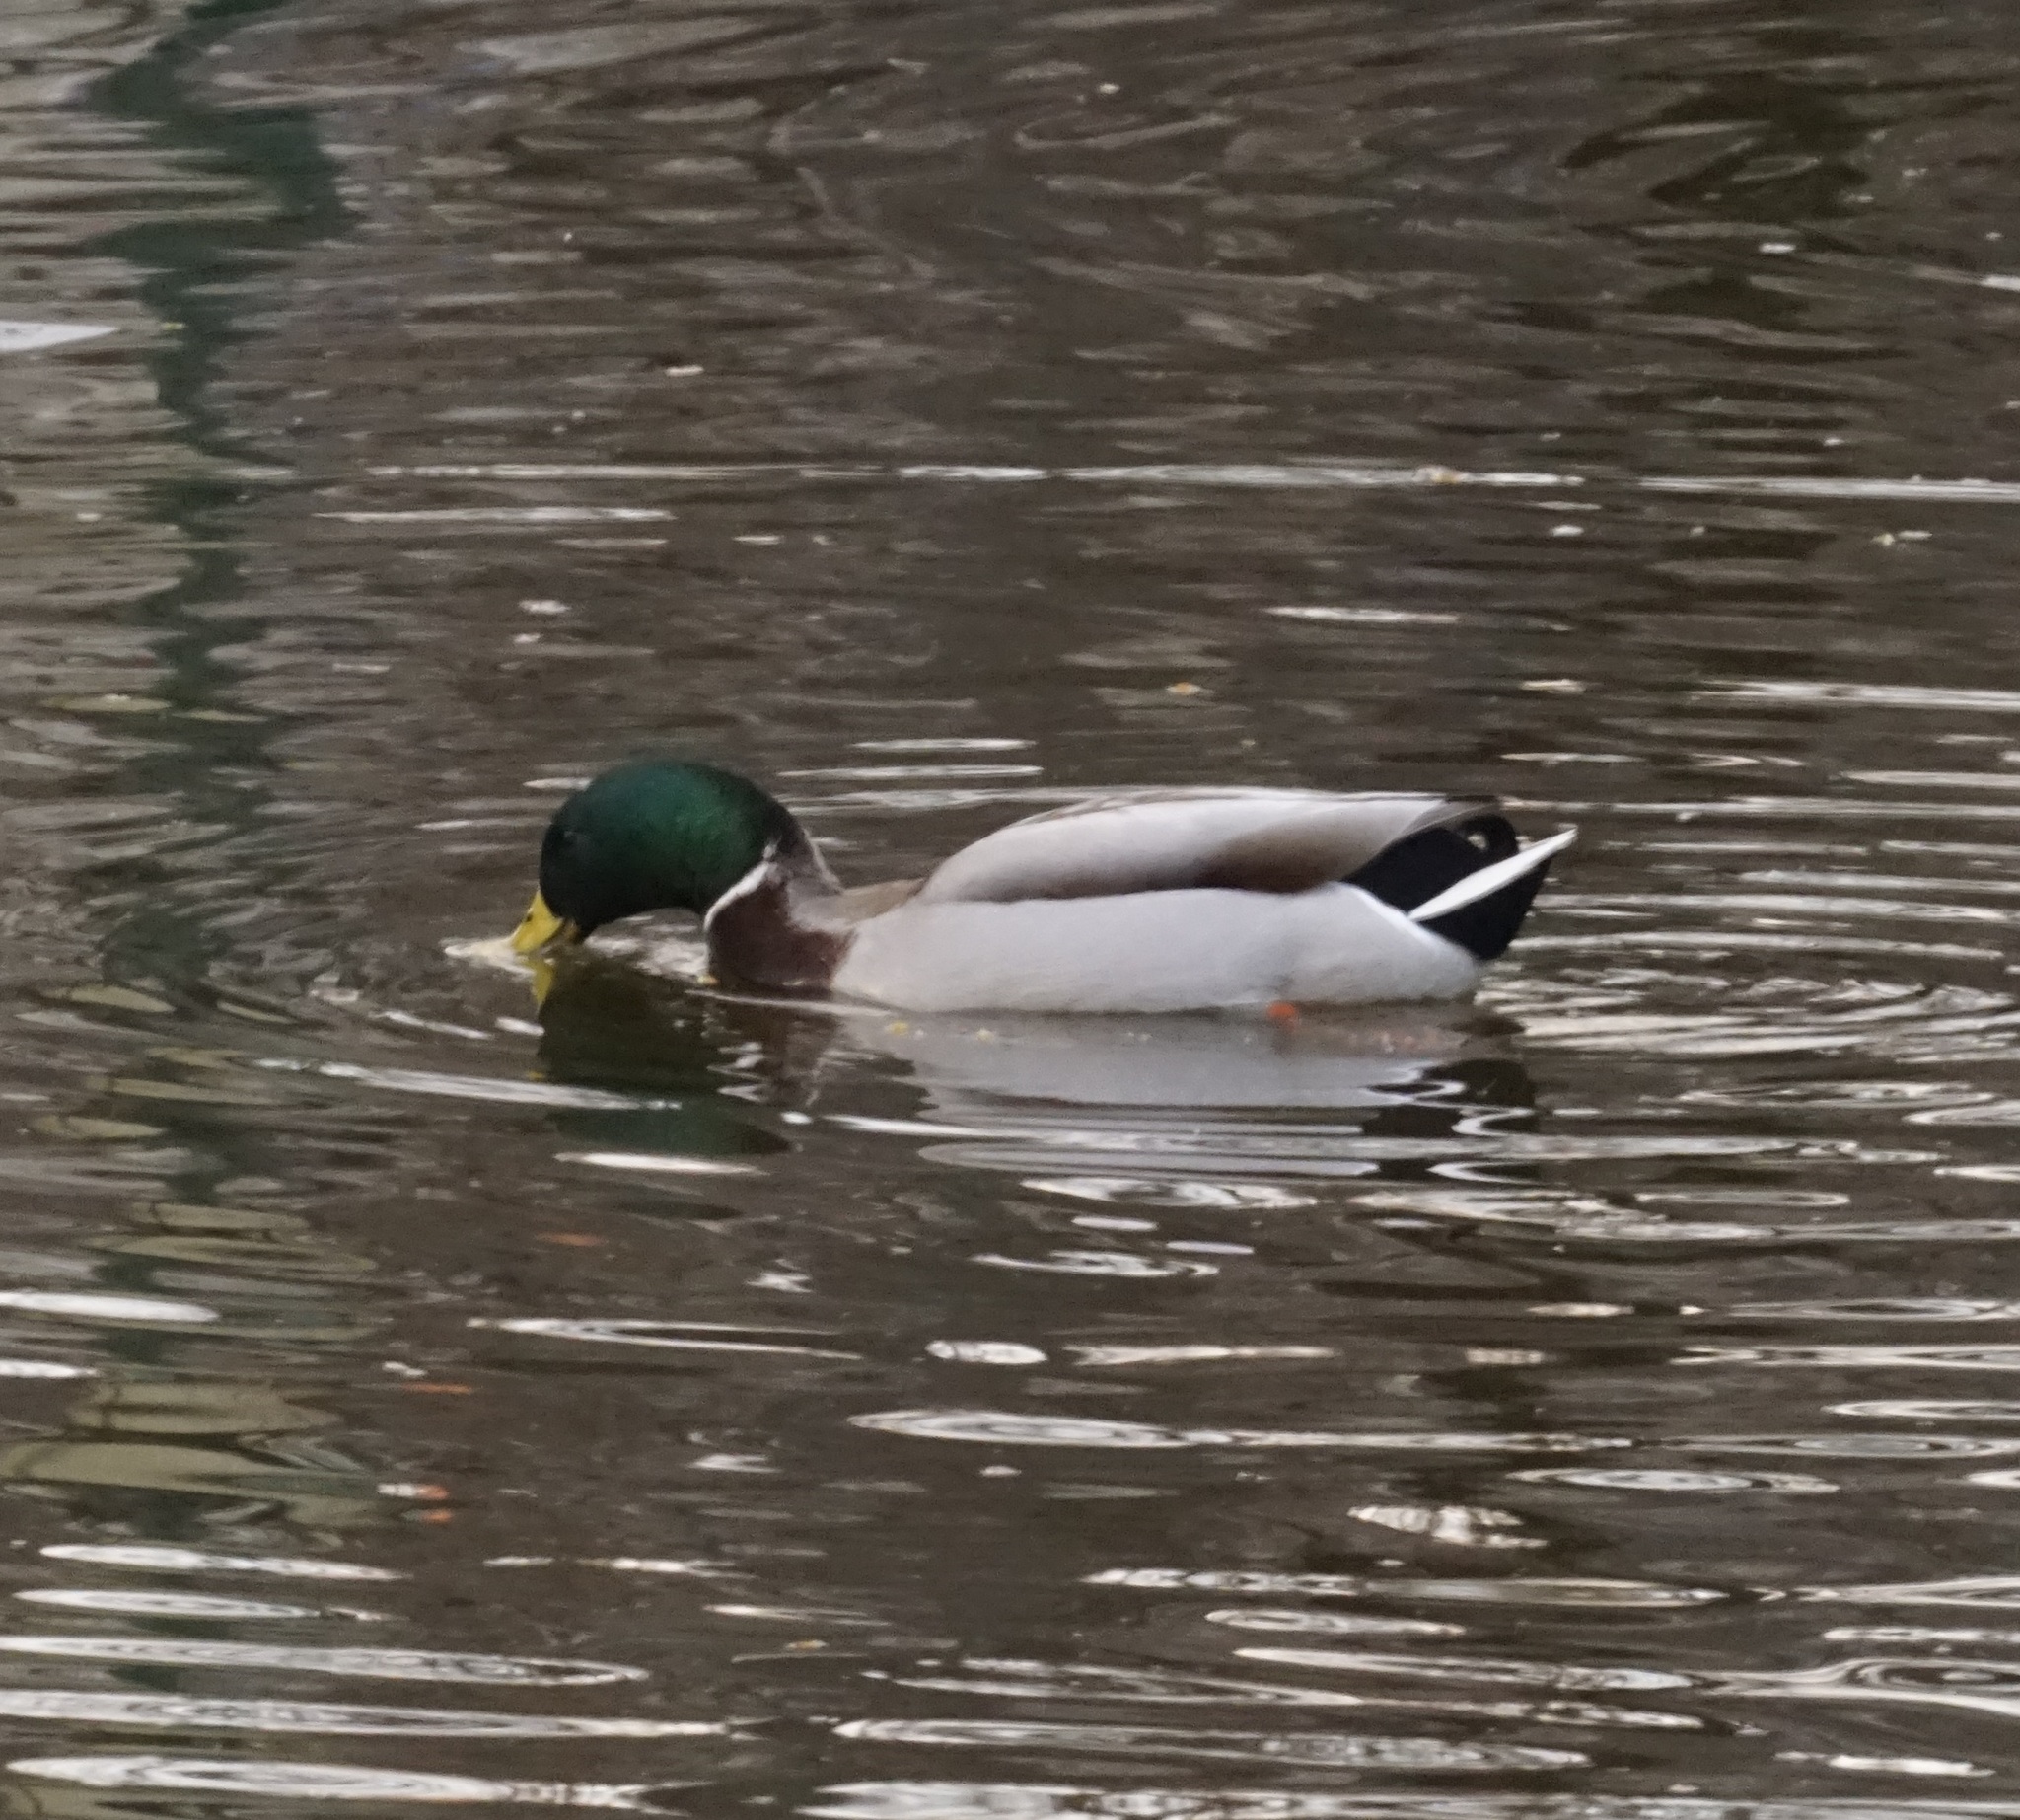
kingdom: Animalia
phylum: Chordata
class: Aves
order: Anseriformes
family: Anatidae
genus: Anas
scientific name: Anas platyrhynchos
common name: Mallard
